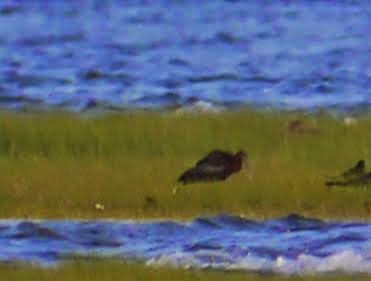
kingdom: Animalia
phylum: Chordata
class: Aves
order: Pelecaniformes
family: Threskiornithidae
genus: Plegadis
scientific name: Plegadis falcinellus
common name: Glossy ibis
